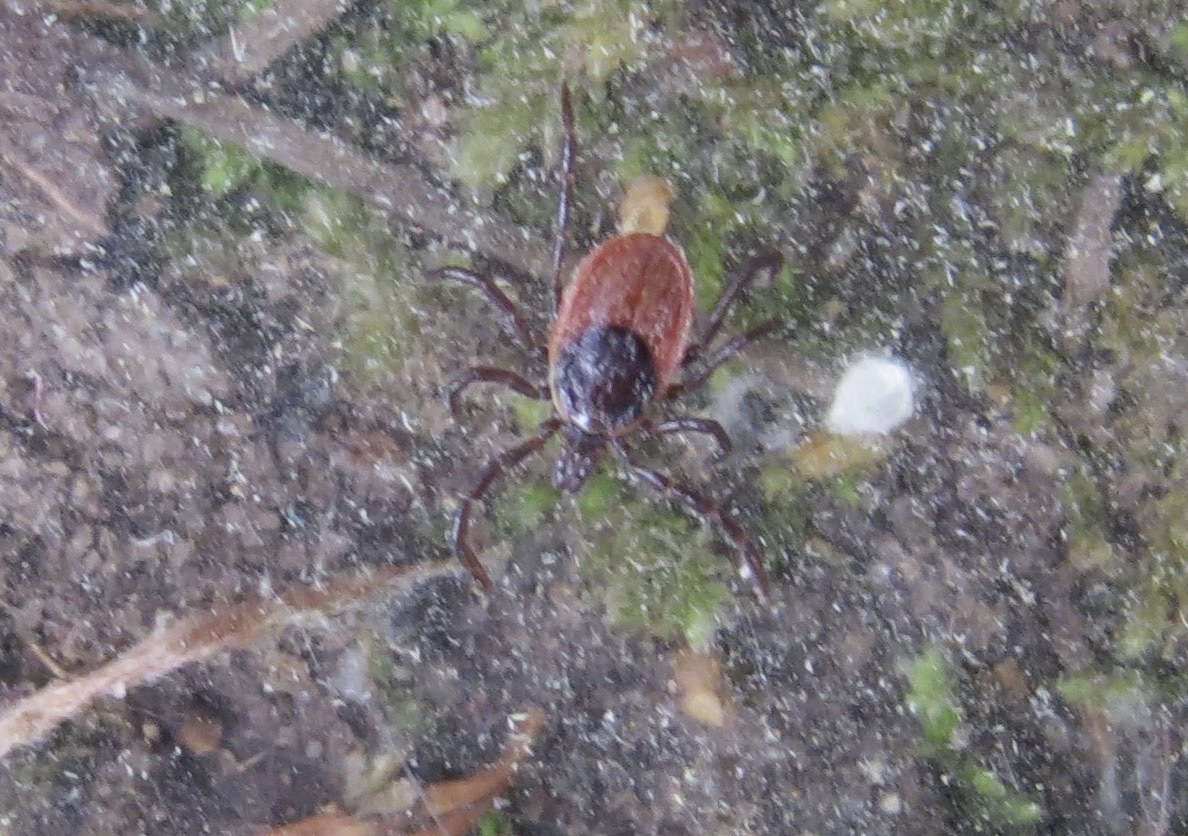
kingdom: Animalia
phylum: Arthropoda
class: Arachnida
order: Ixodida
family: Ixodidae
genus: Ixodes
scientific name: Ixodes pacificus
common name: California black-legged tick
